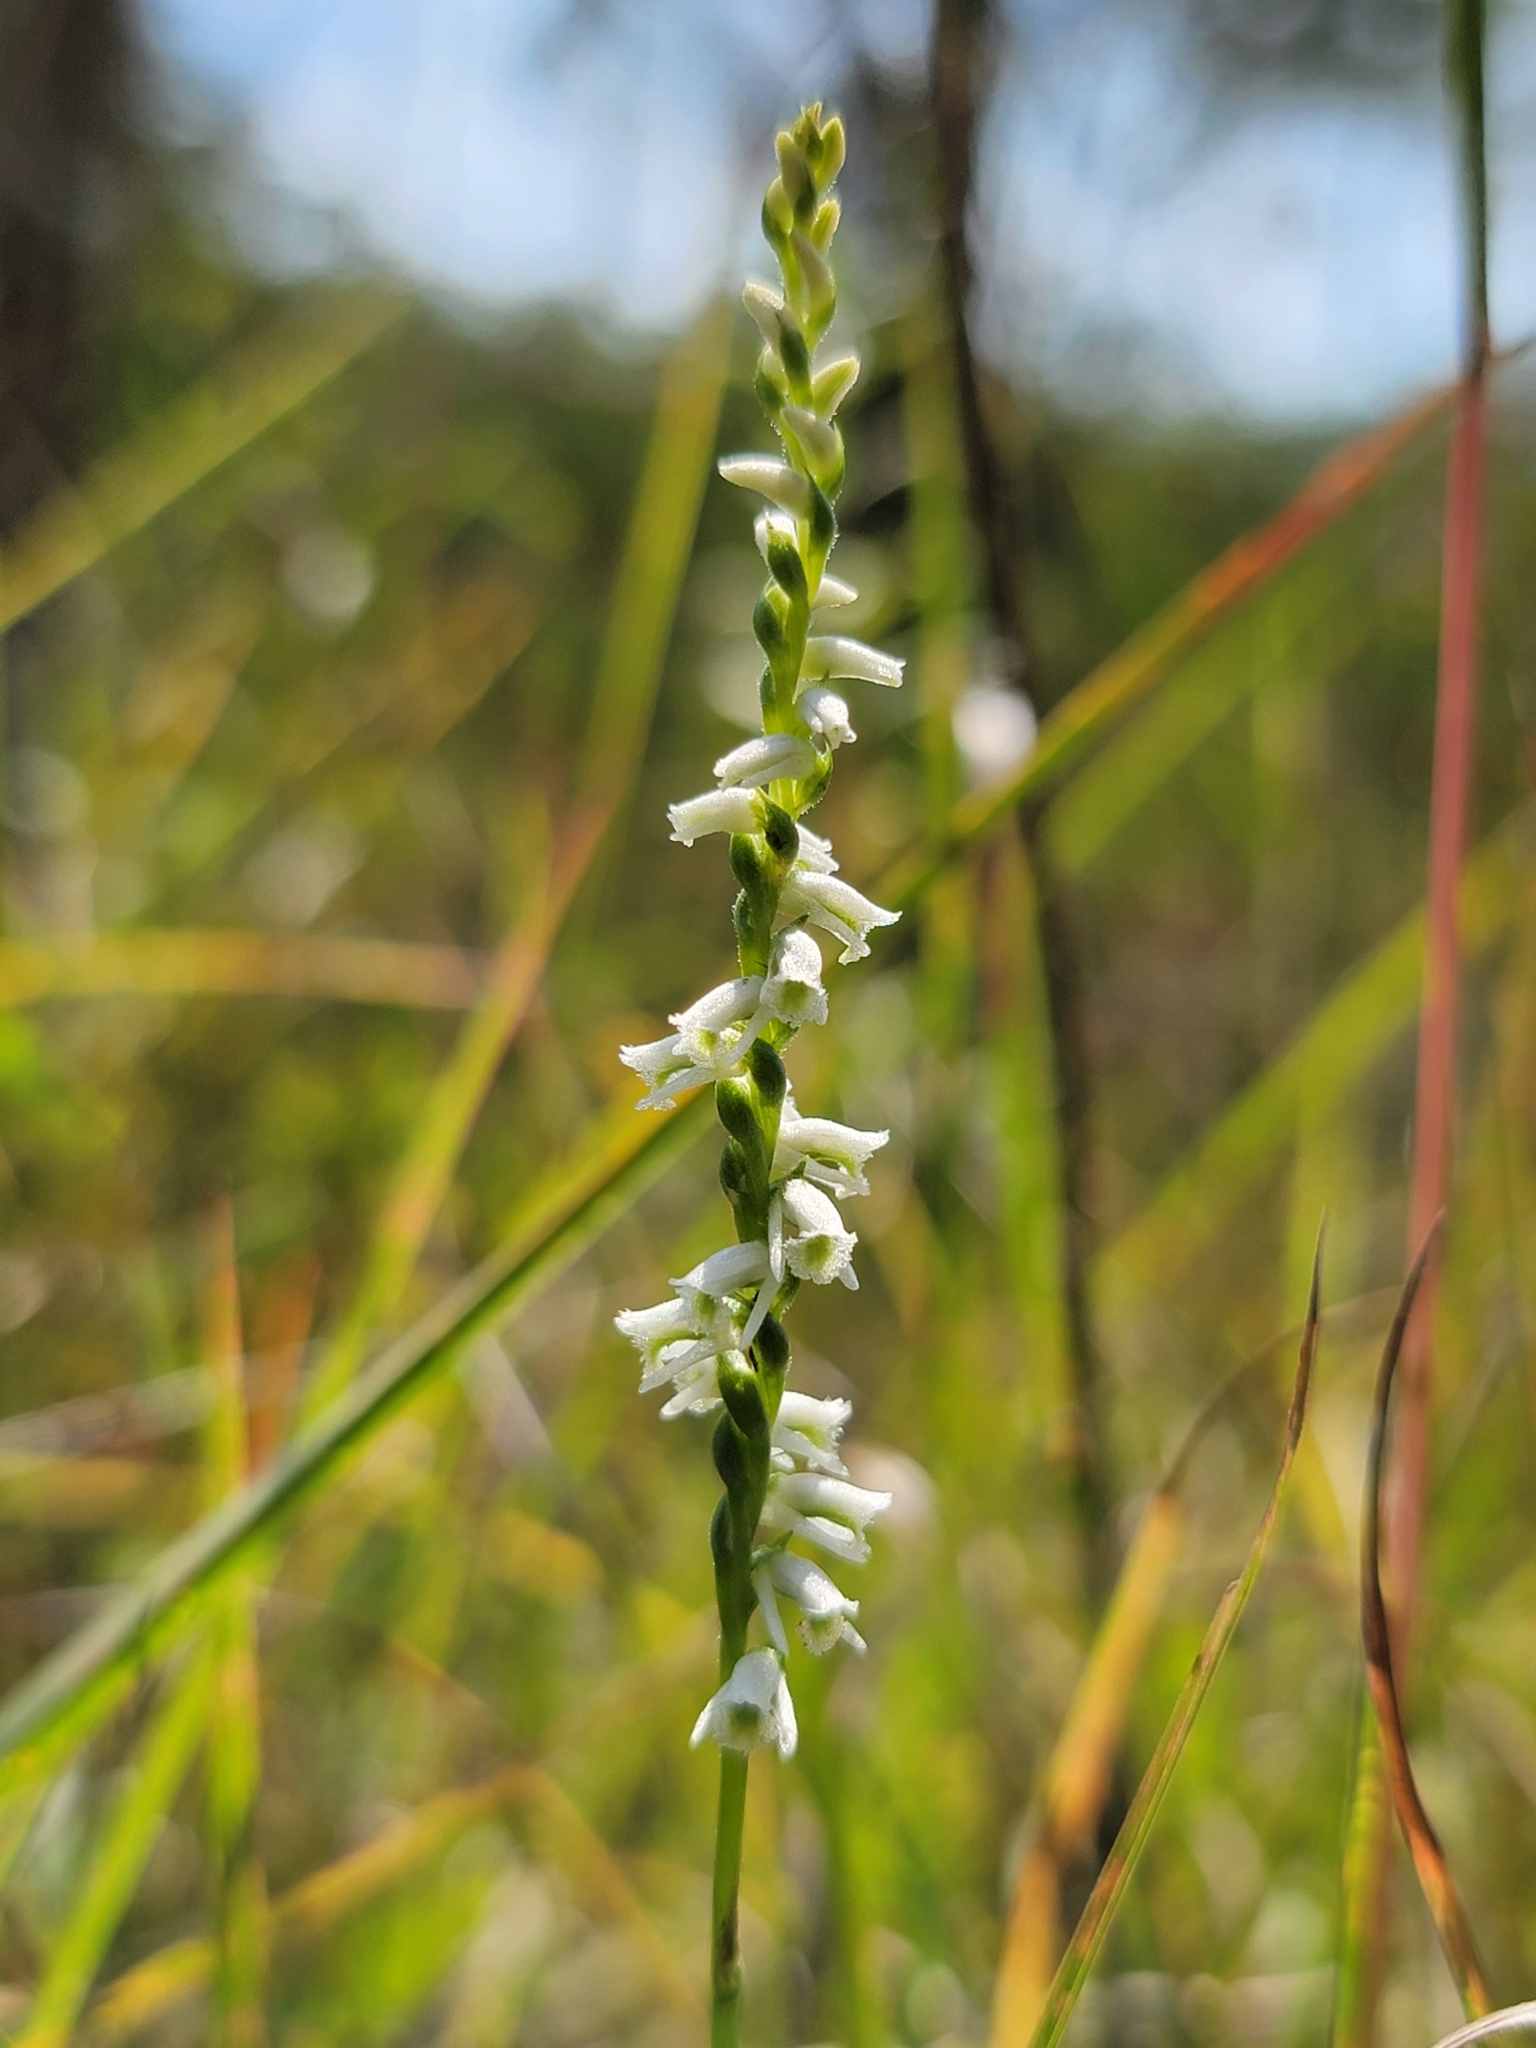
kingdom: Plantae
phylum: Tracheophyta
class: Liliopsida
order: Asparagales
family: Orchidaceae
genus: Spiranthes
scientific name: Spiranthes lacera
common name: Northern slender ladies'-tresses
